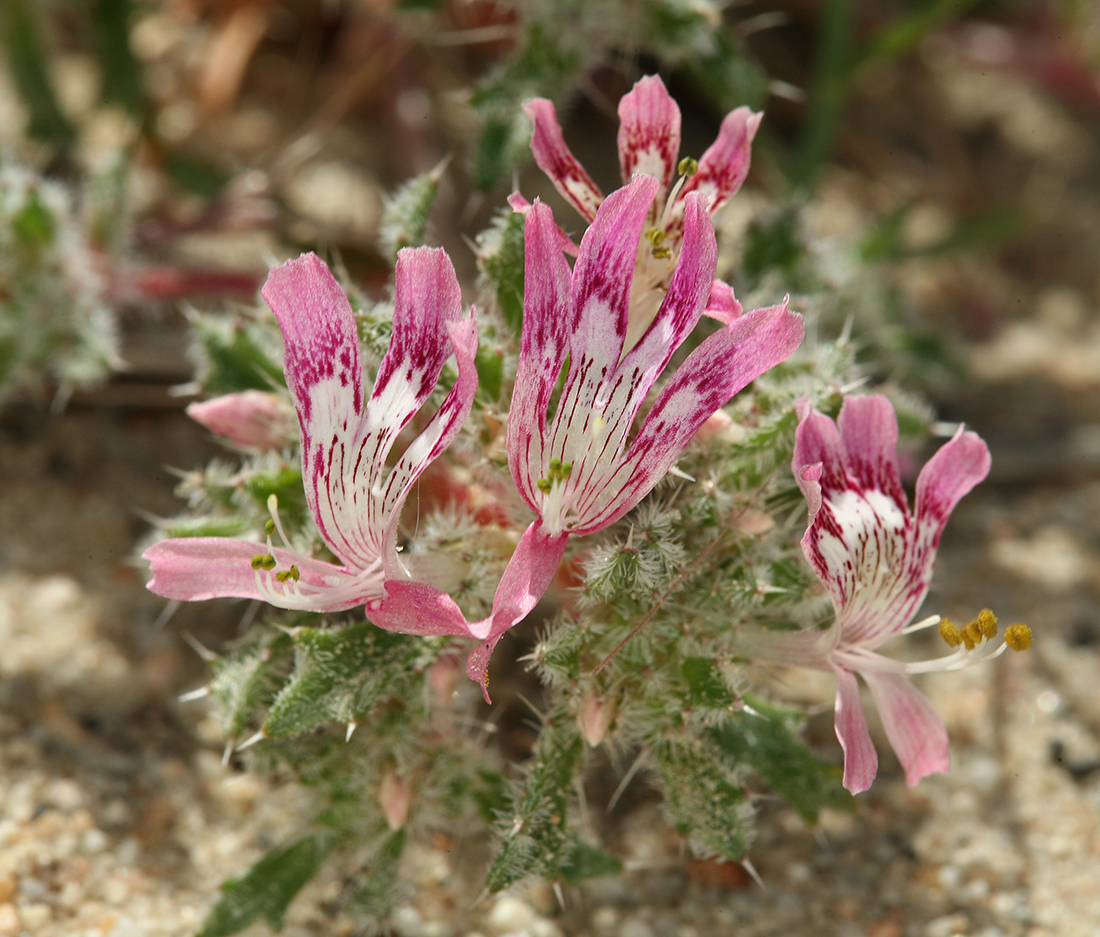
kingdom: Plantae
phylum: Tracheophyta
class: Magnoliopsida
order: Ericales
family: Polemoniaceae
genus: Loeseliastrum
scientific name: Loeseliastrum matthewsii
